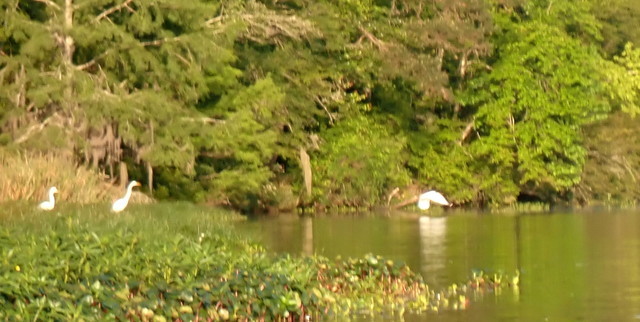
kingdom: Animalia
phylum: Chordata
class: Aves
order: Pelecaniformes
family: Ardeidae
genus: Ardea
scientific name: Ardea alba
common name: Great egret
